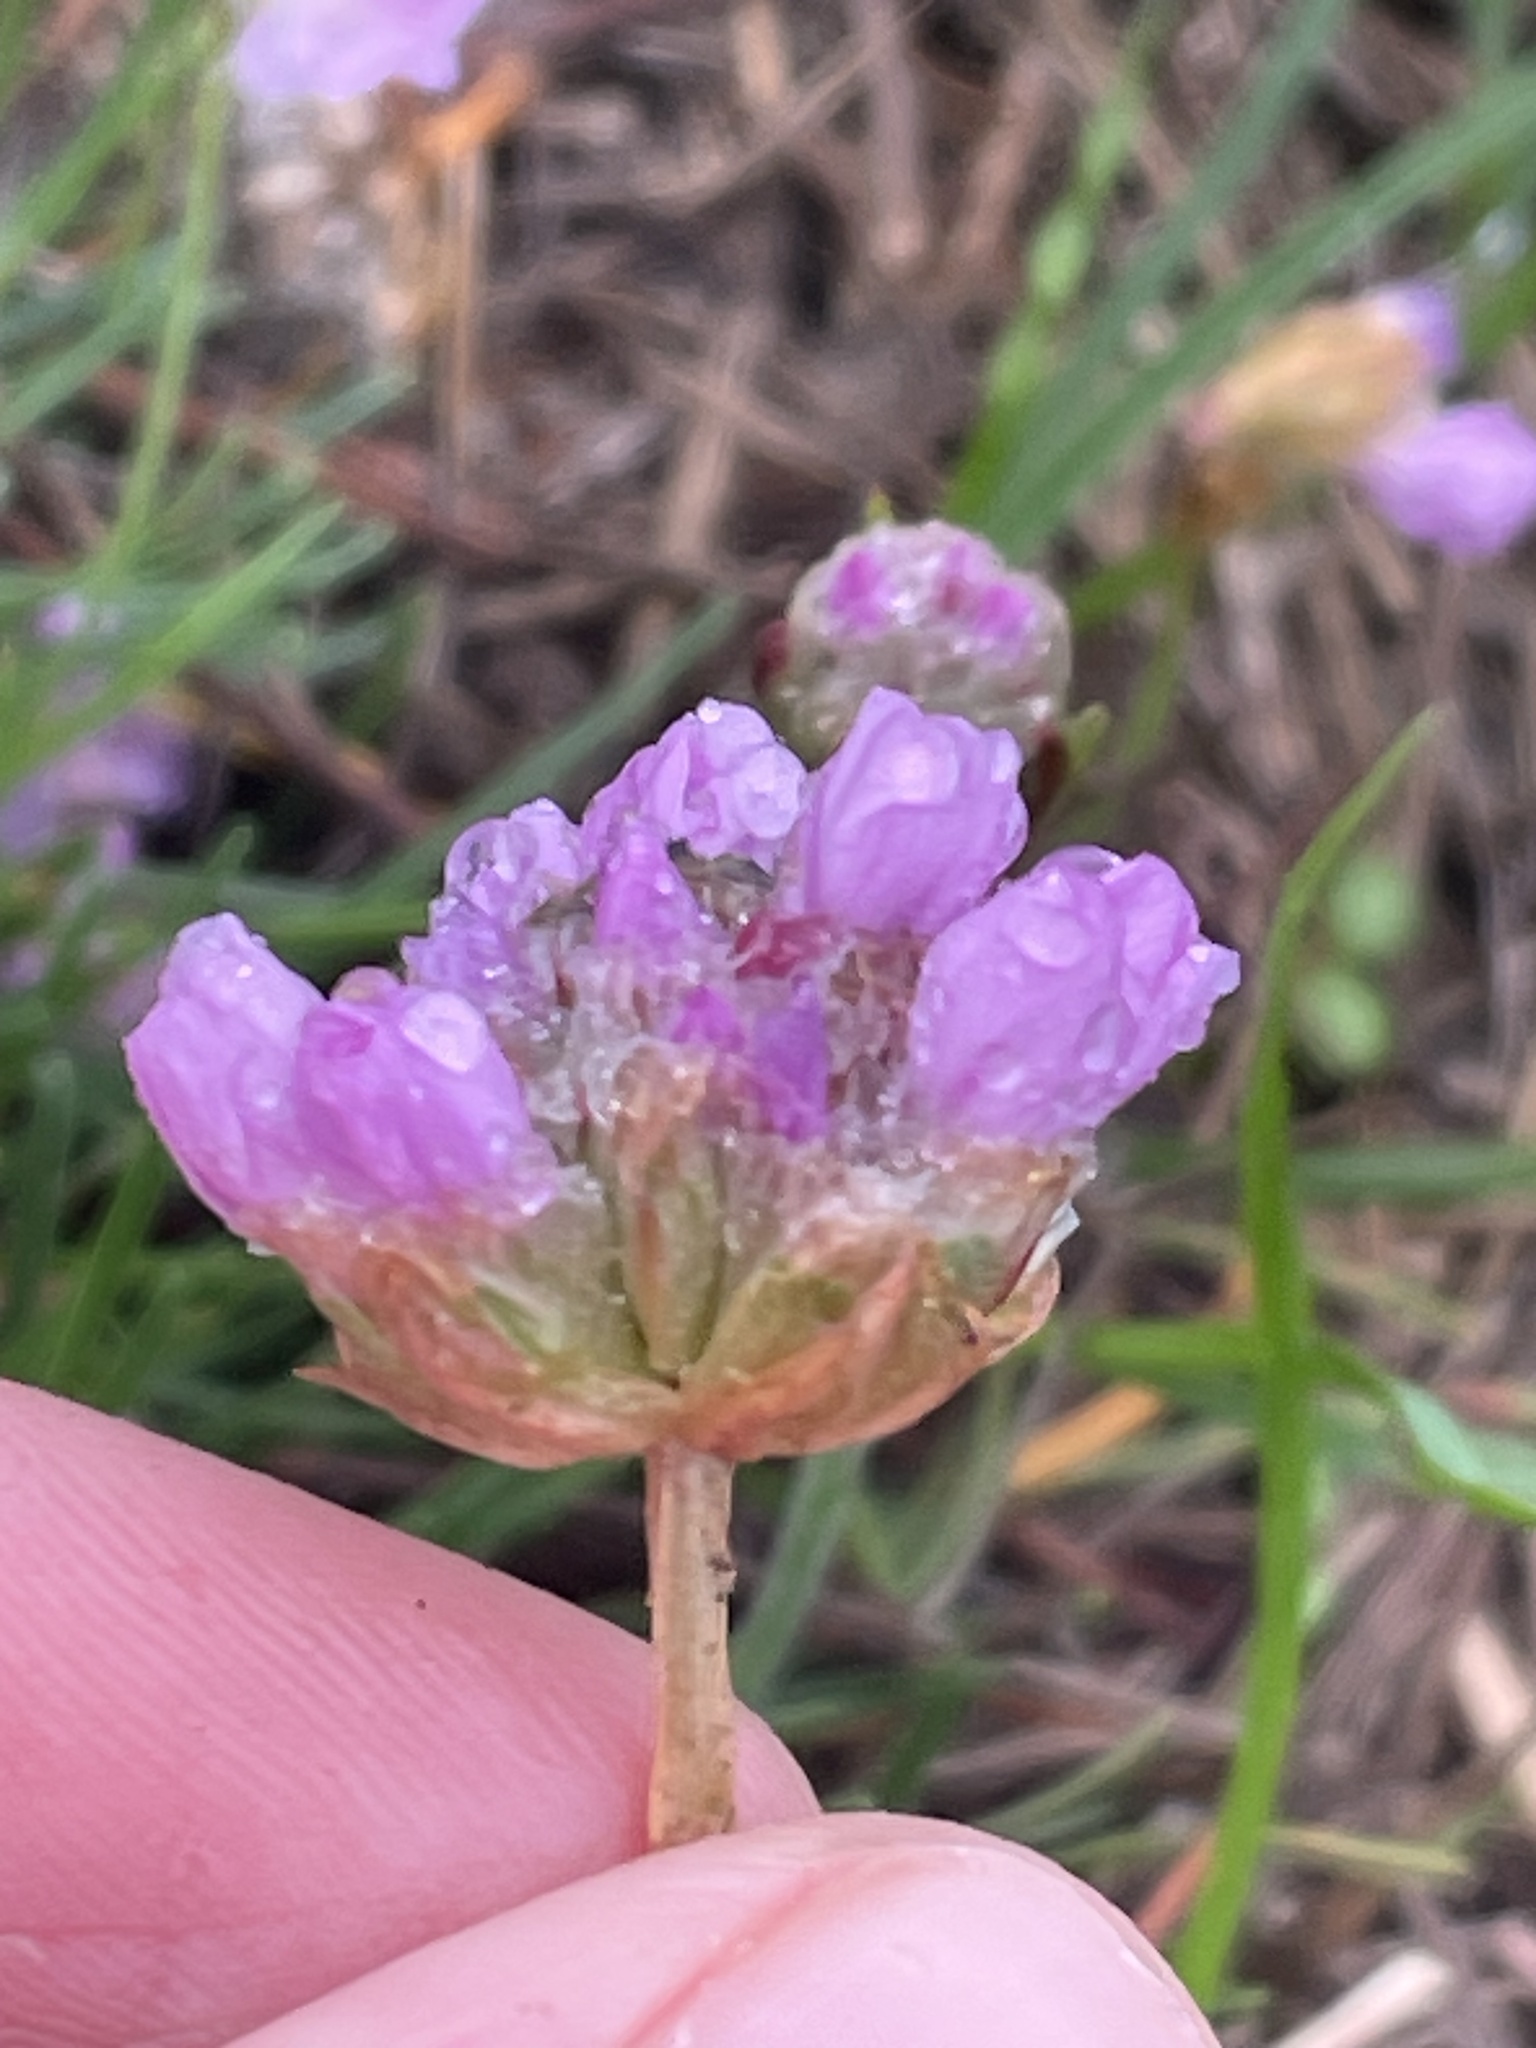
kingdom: Plantae
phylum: Tracheophyta
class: Magnoliopsida
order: Caryophyllales
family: Plumbaginaceae
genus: Armeria
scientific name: Armeria maritima
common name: Thrift
